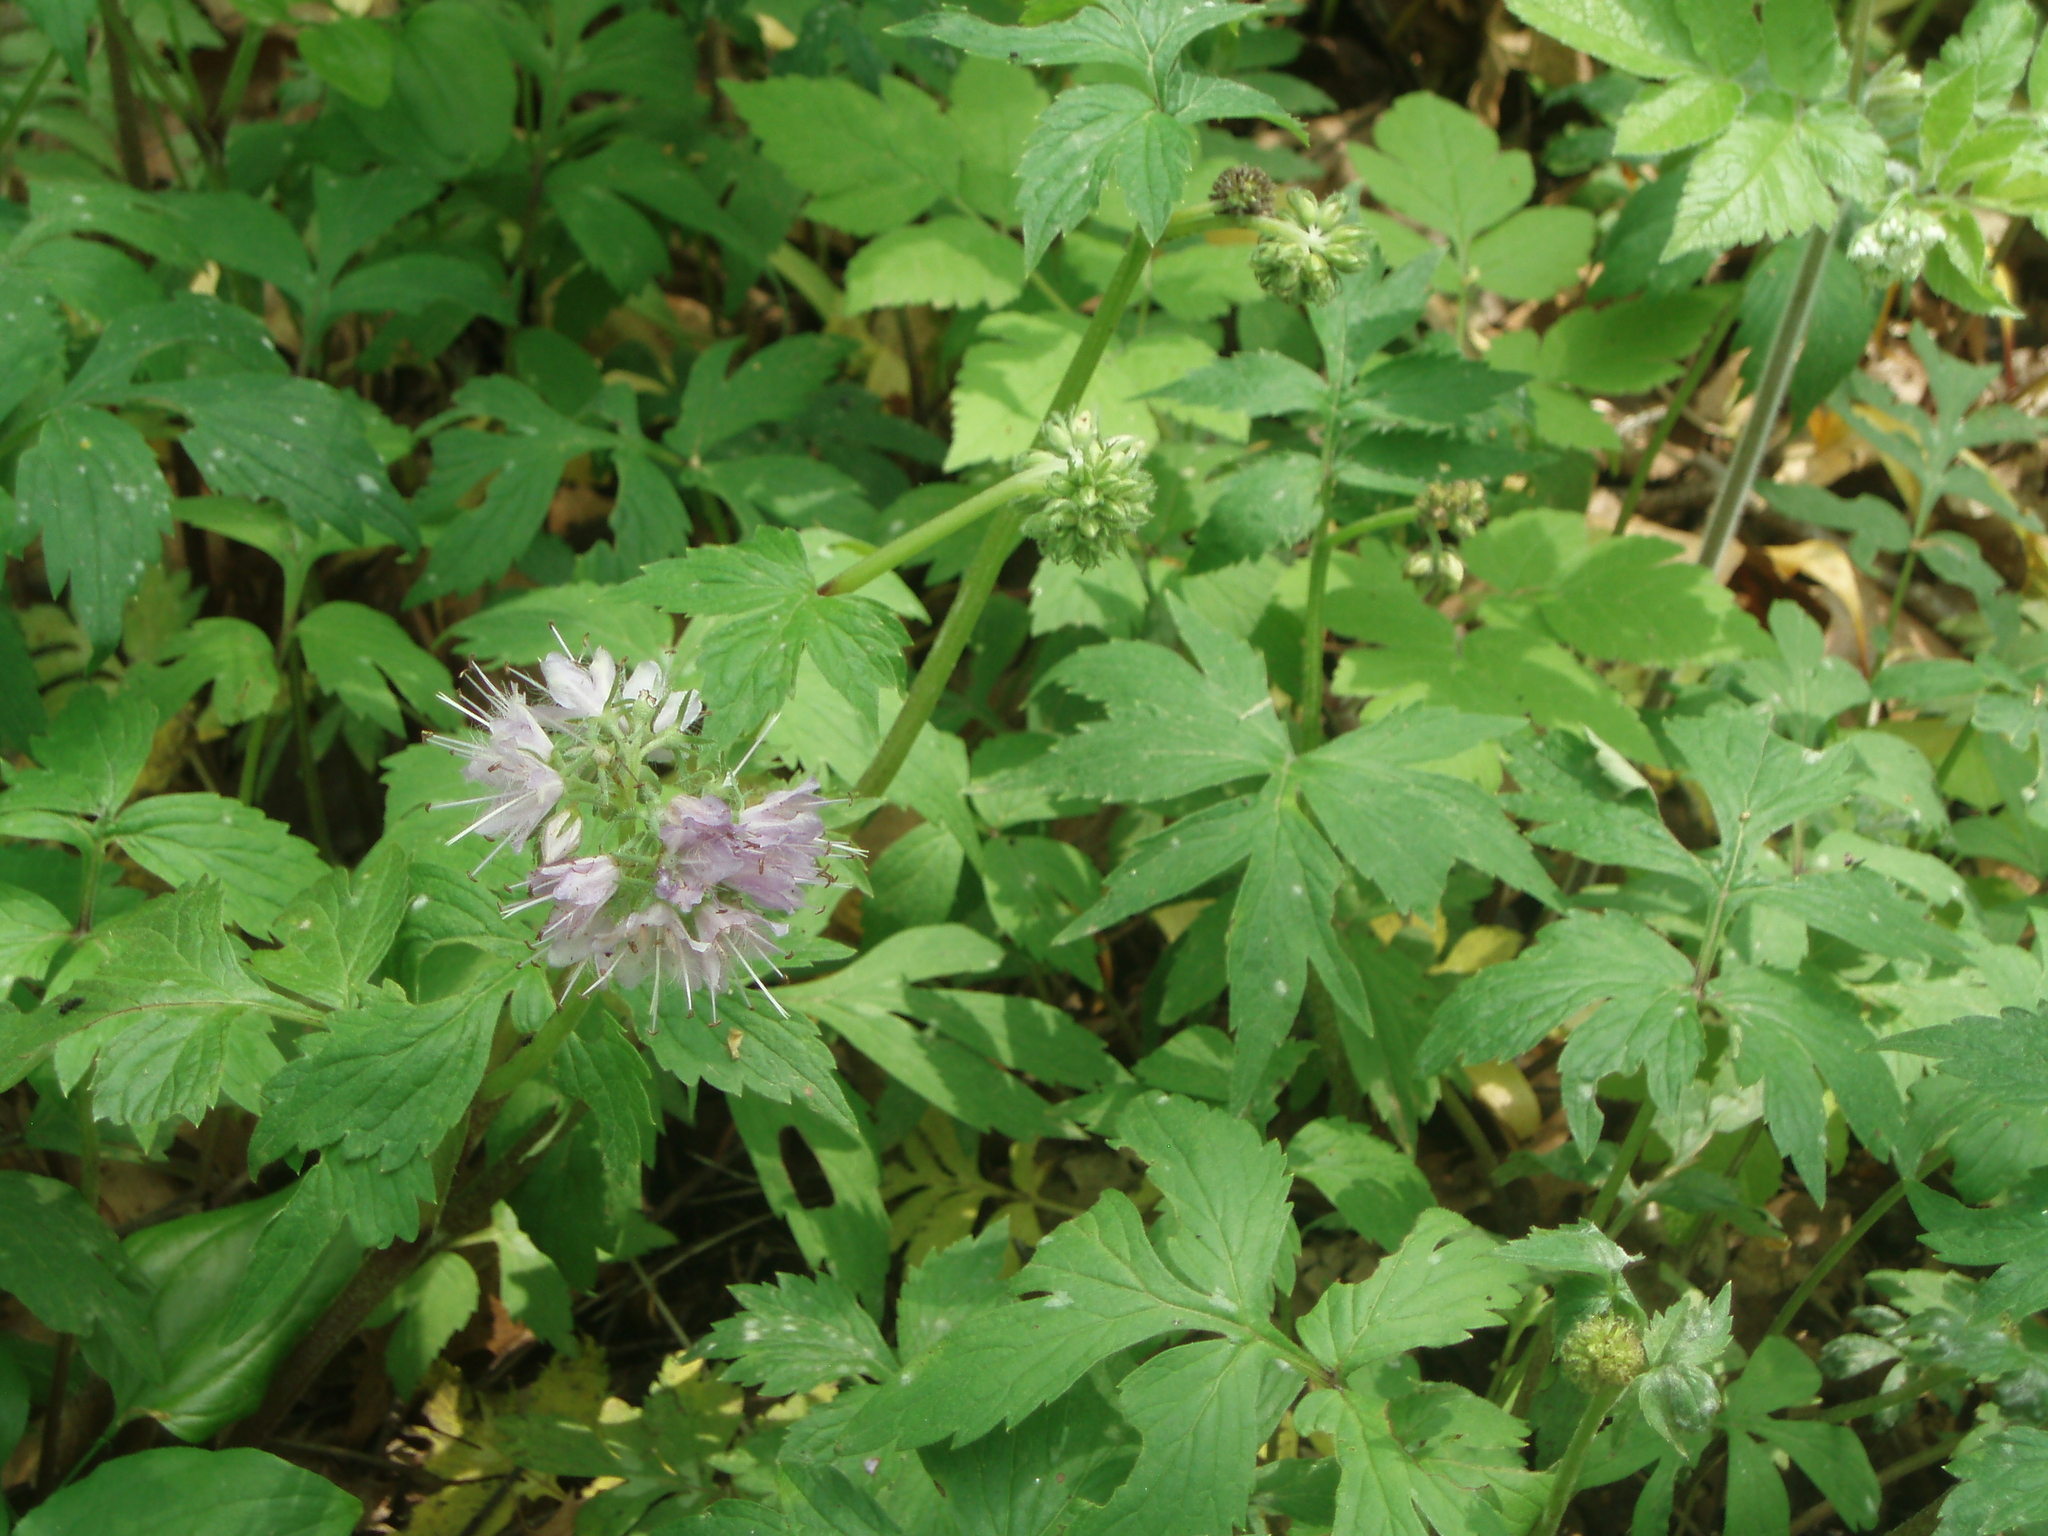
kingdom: Plantae
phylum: Tracheophyta
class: Magnoliopsida
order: Boraginales
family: Hydrophyllaceae
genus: Hydrophyllum
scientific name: Hydrophyllum virginianum
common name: Virginia waterleaf
